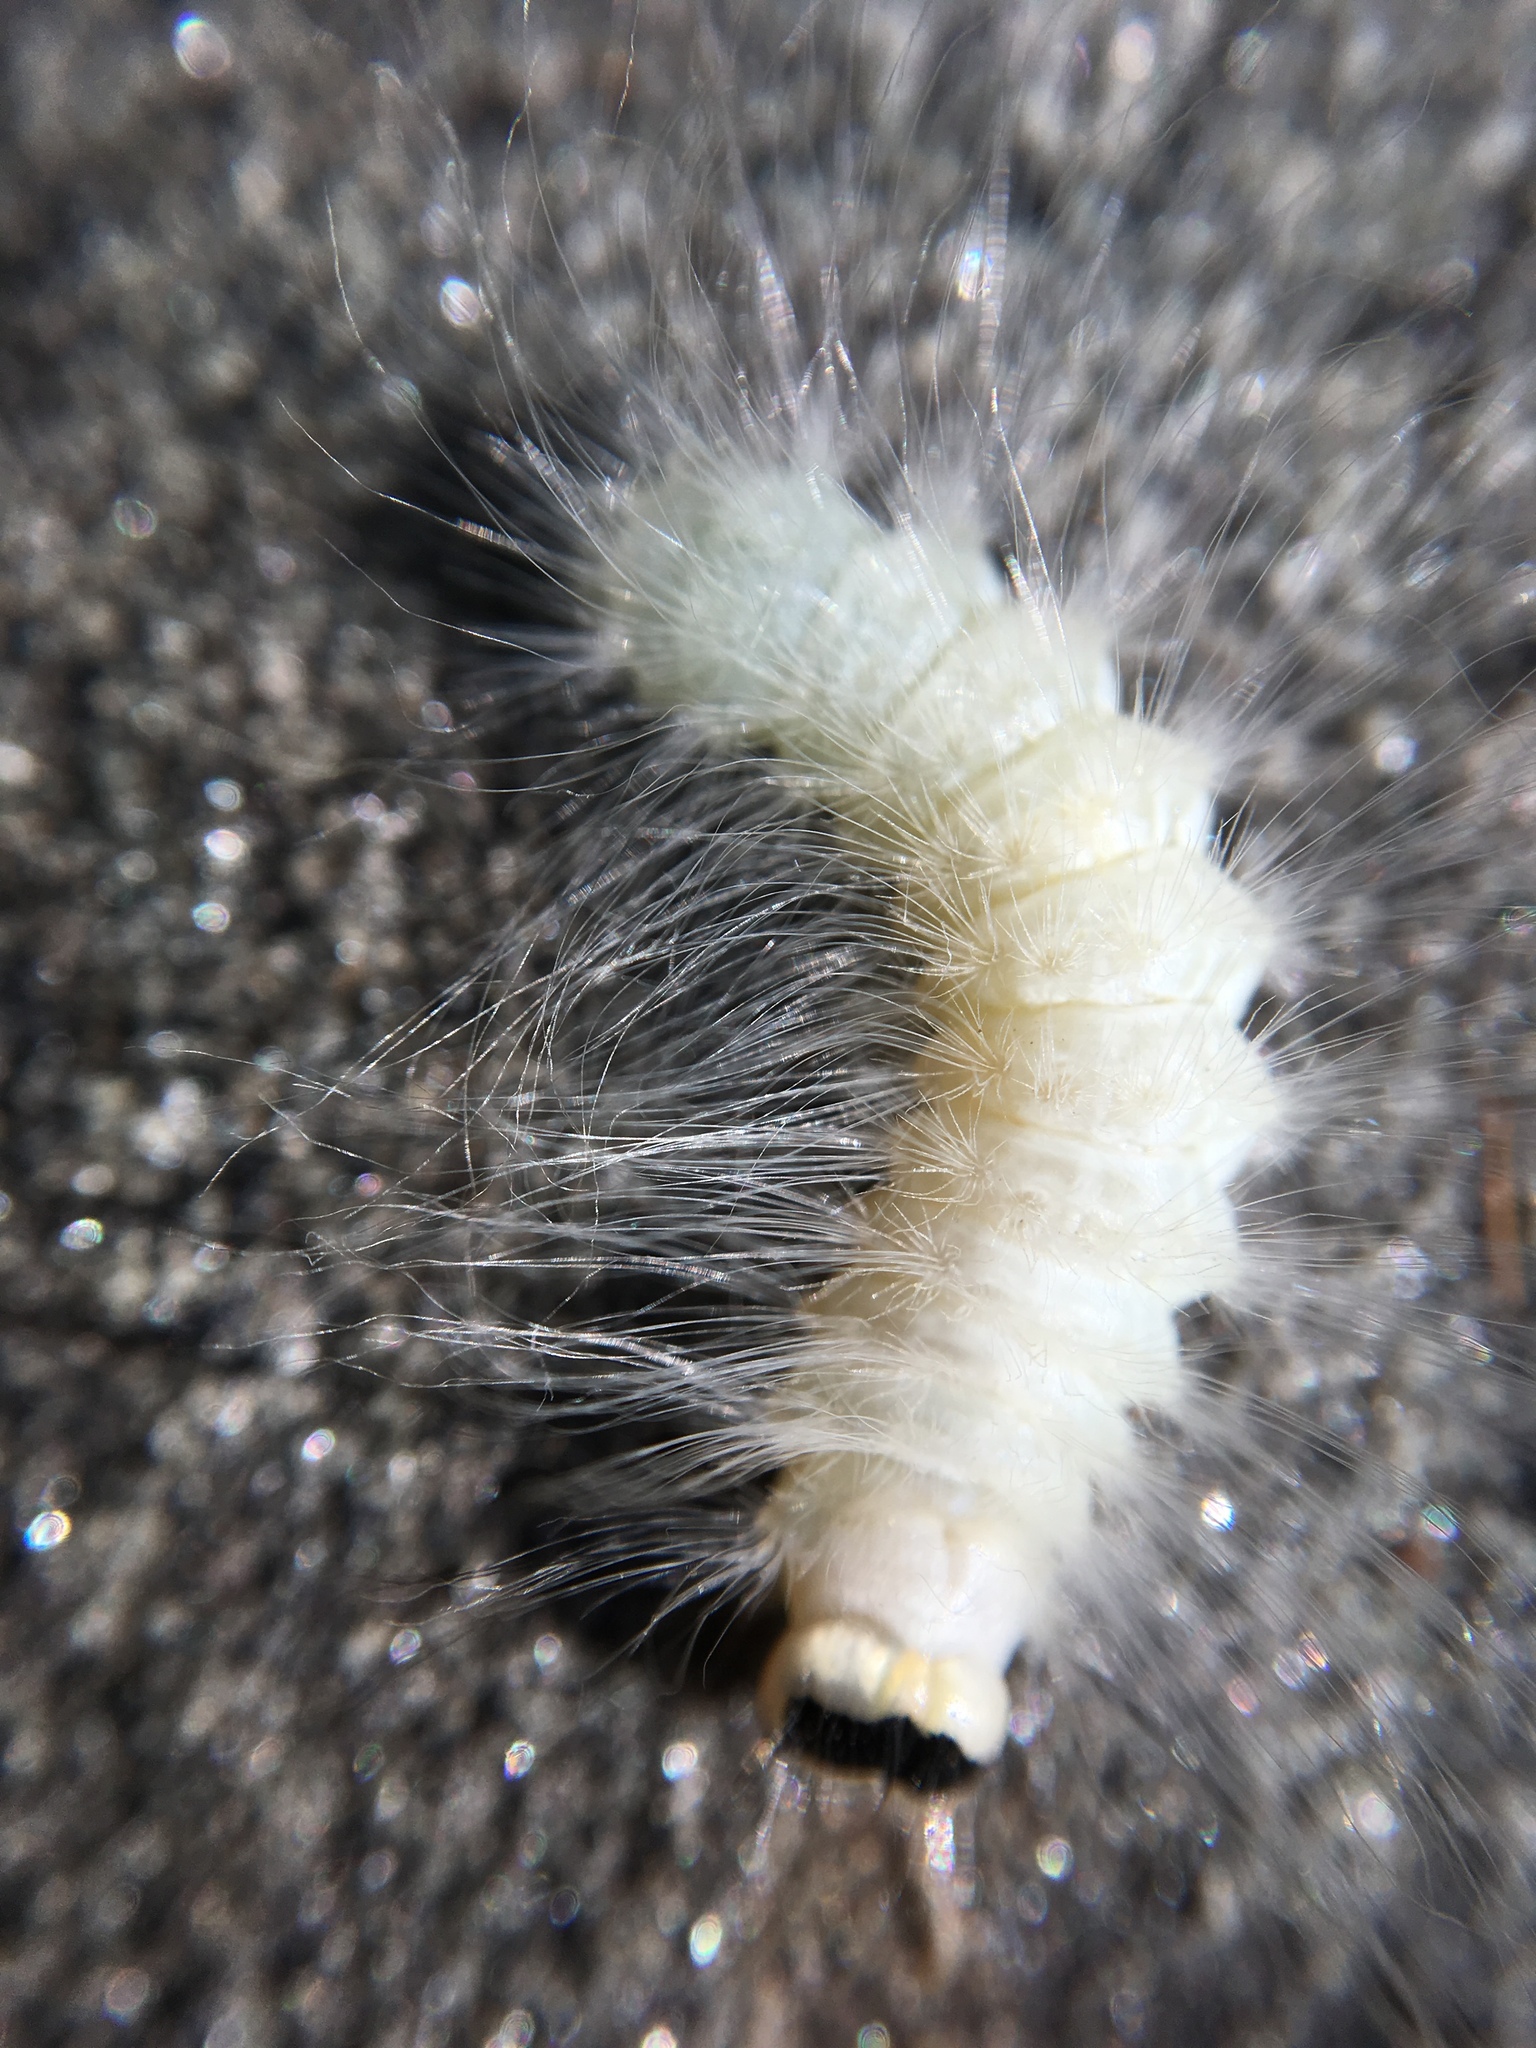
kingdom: Animalia
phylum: Arthropoda
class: Insecta
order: Lepidoptera
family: Noctuidae
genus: Charadra
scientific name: Charadra deridens
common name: Marbled tuffet
